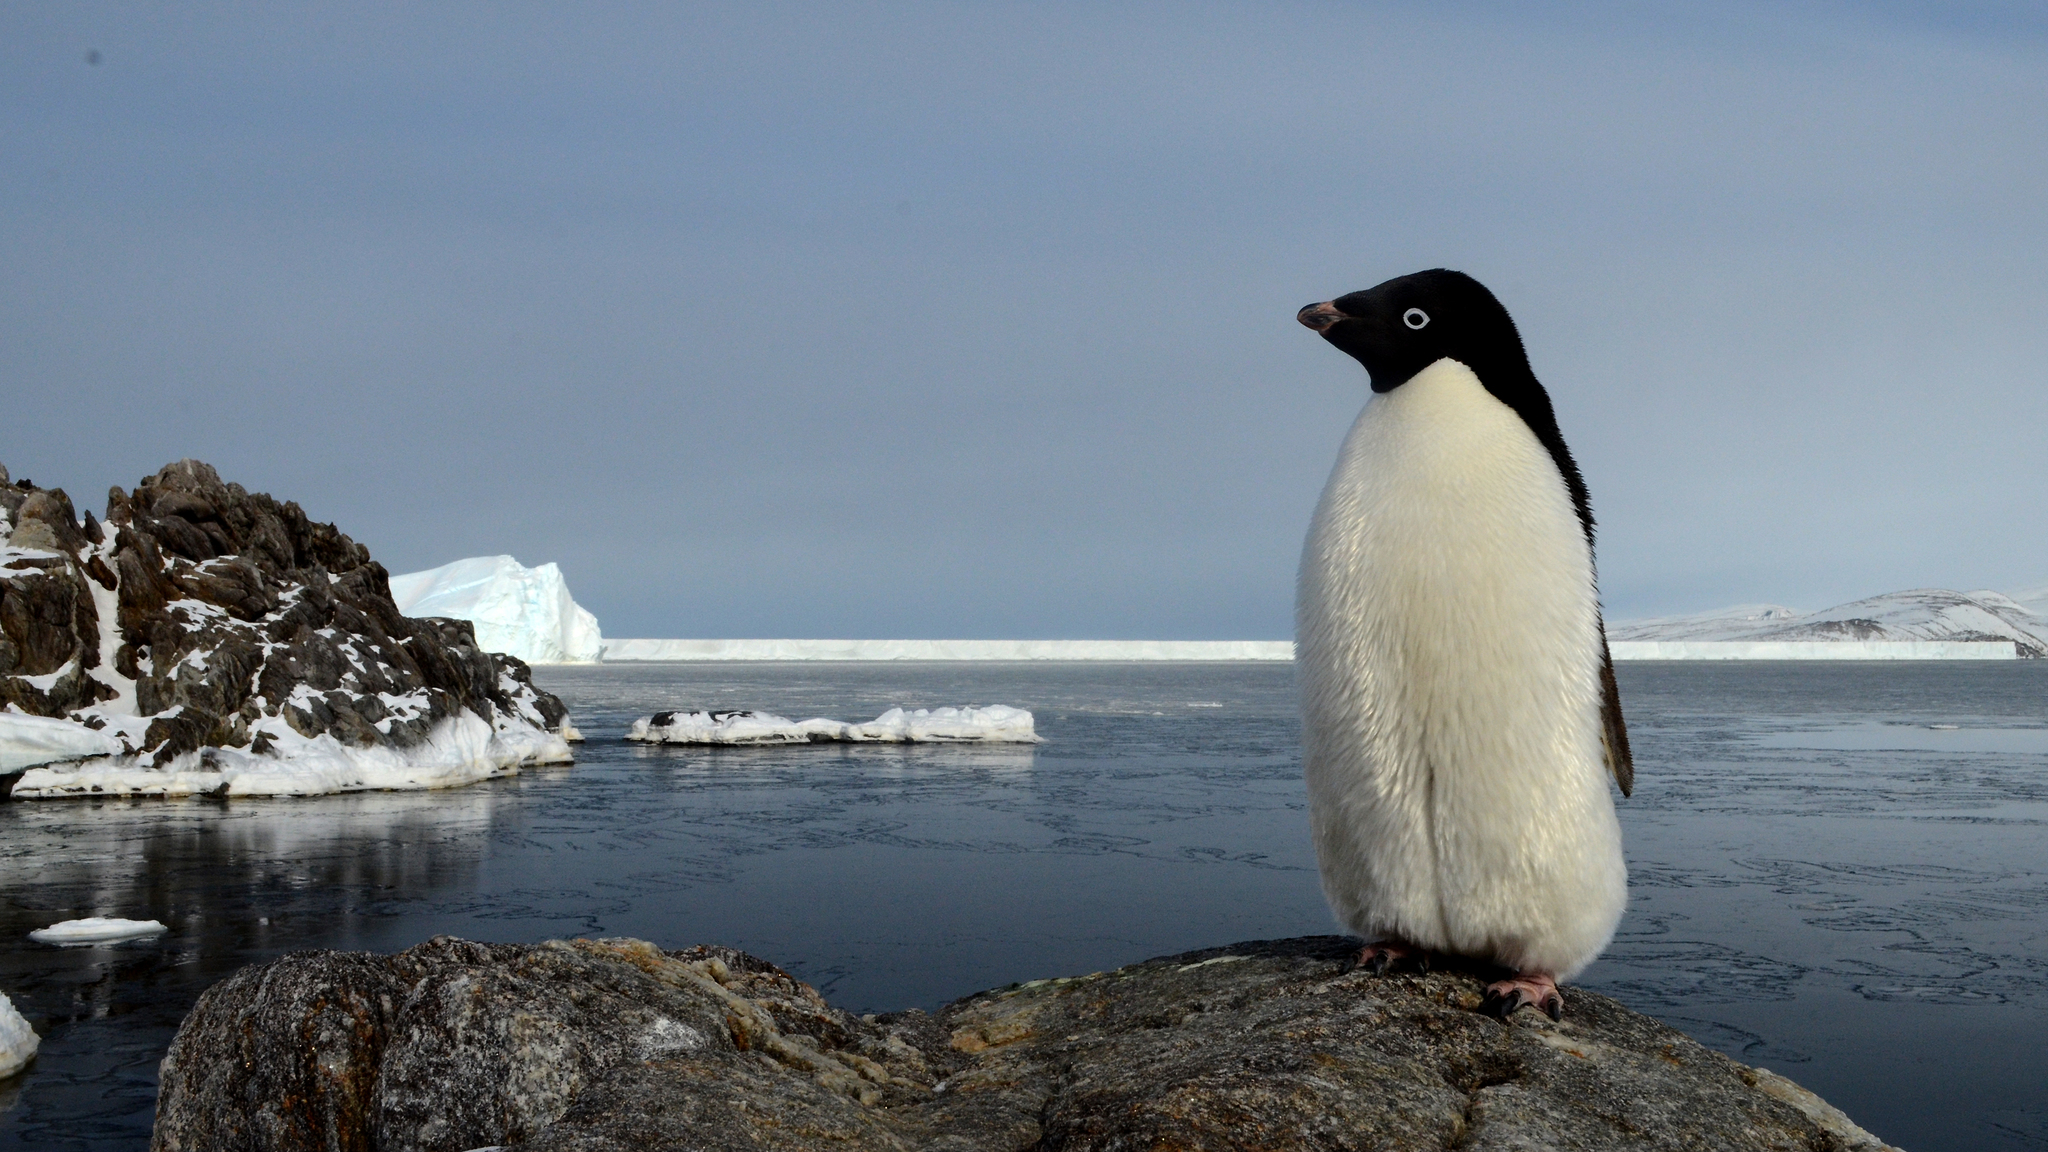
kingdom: Animalia
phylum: Chordata
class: Aves
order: Sphenisciformes
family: Spheniscidae
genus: Pygoscelis
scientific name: Pygoscelis adeliae
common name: Adelie penguin
